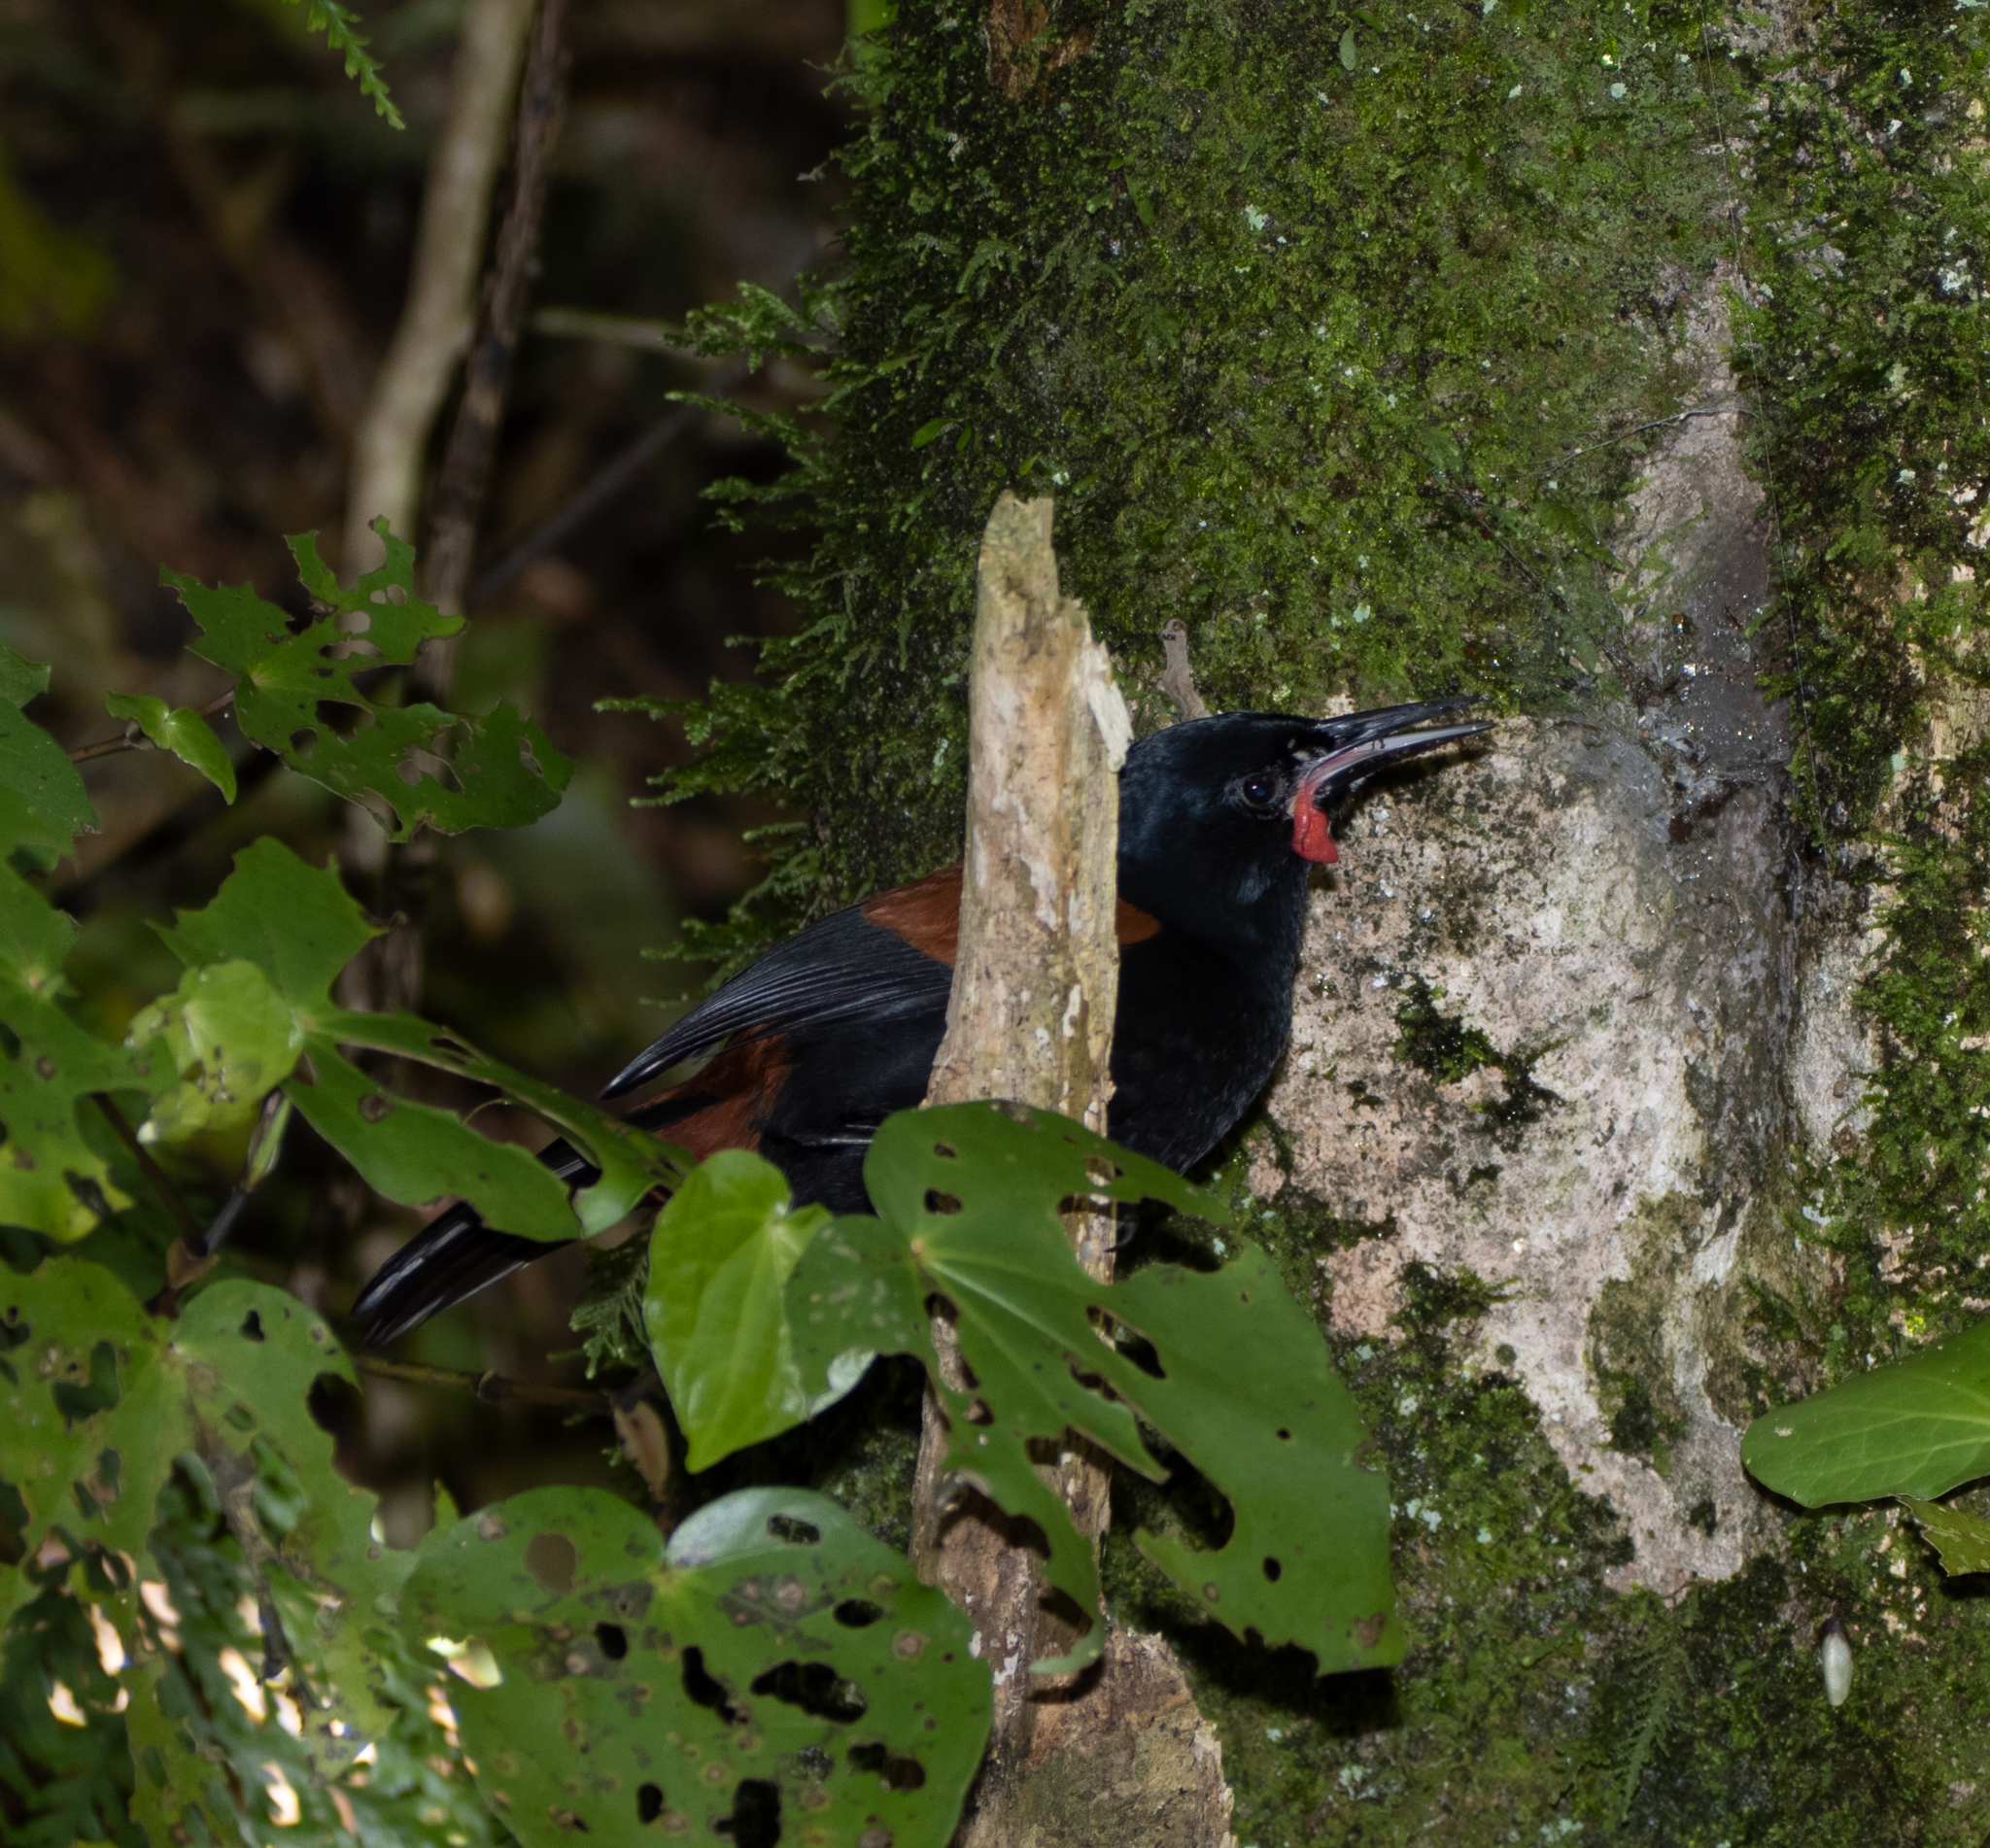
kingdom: Animalia
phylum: Chordata
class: Aves
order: Passeriformes
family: Callaeatidae
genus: Philesturnus
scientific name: Philesturnus carunculatus
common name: South island saddleback
